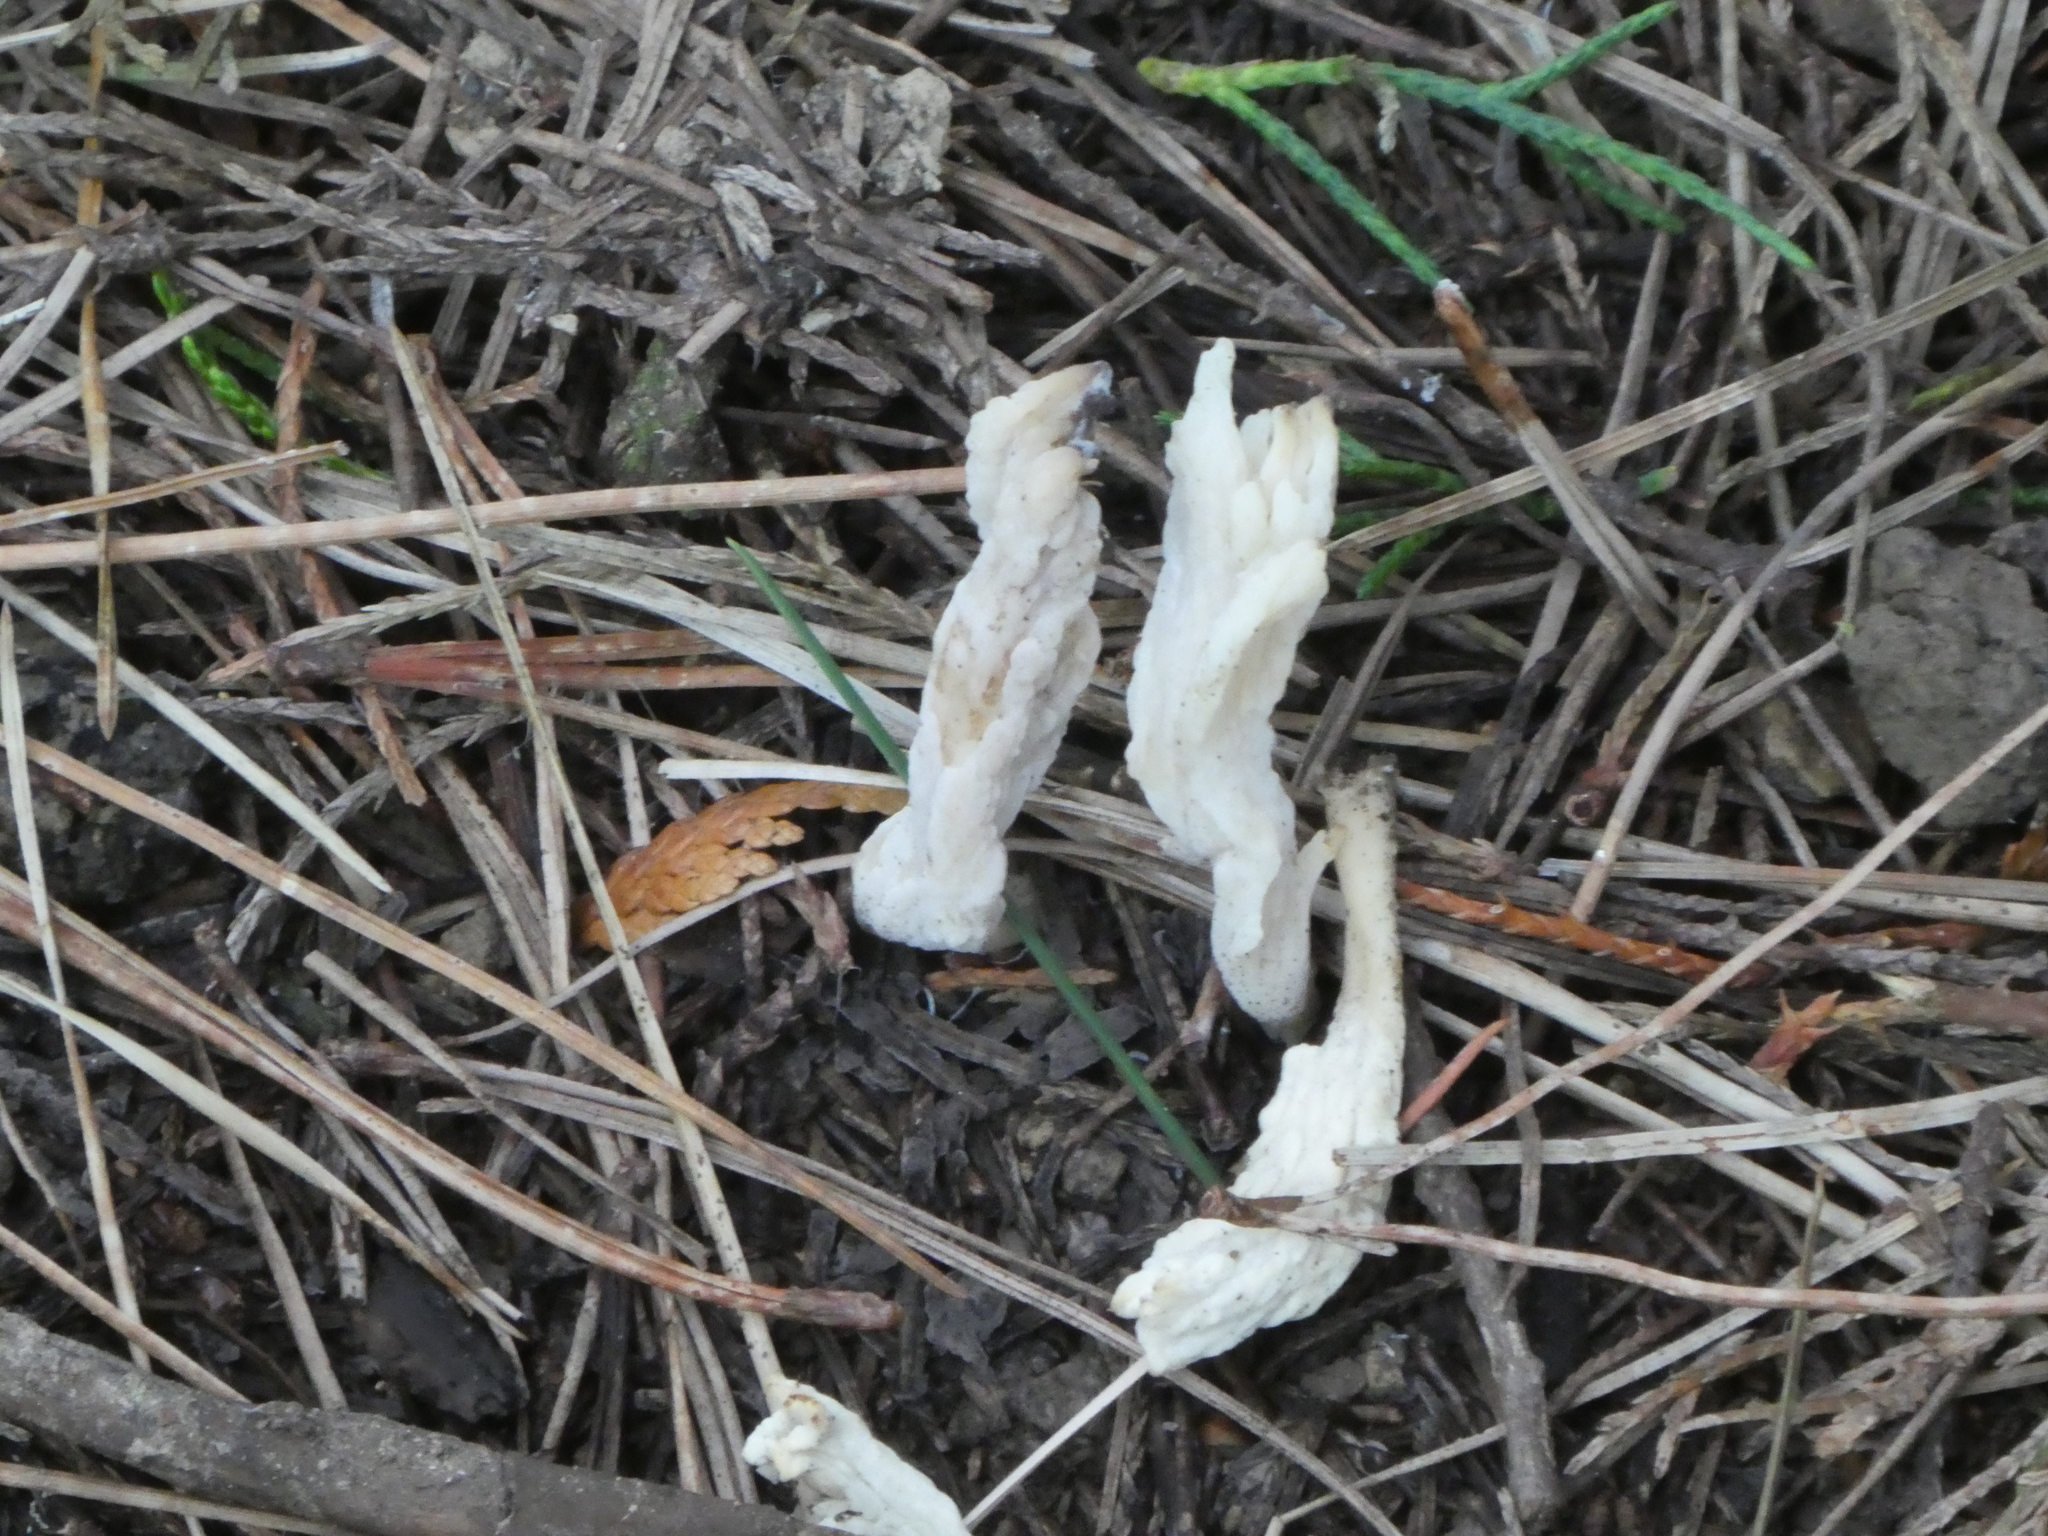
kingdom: Fungi
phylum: Basidiomycota
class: Agaricomycetes
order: Cantharellales
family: Hydnaceae
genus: Clavulina
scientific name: Clavulina rugosa
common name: Wrinkled club
